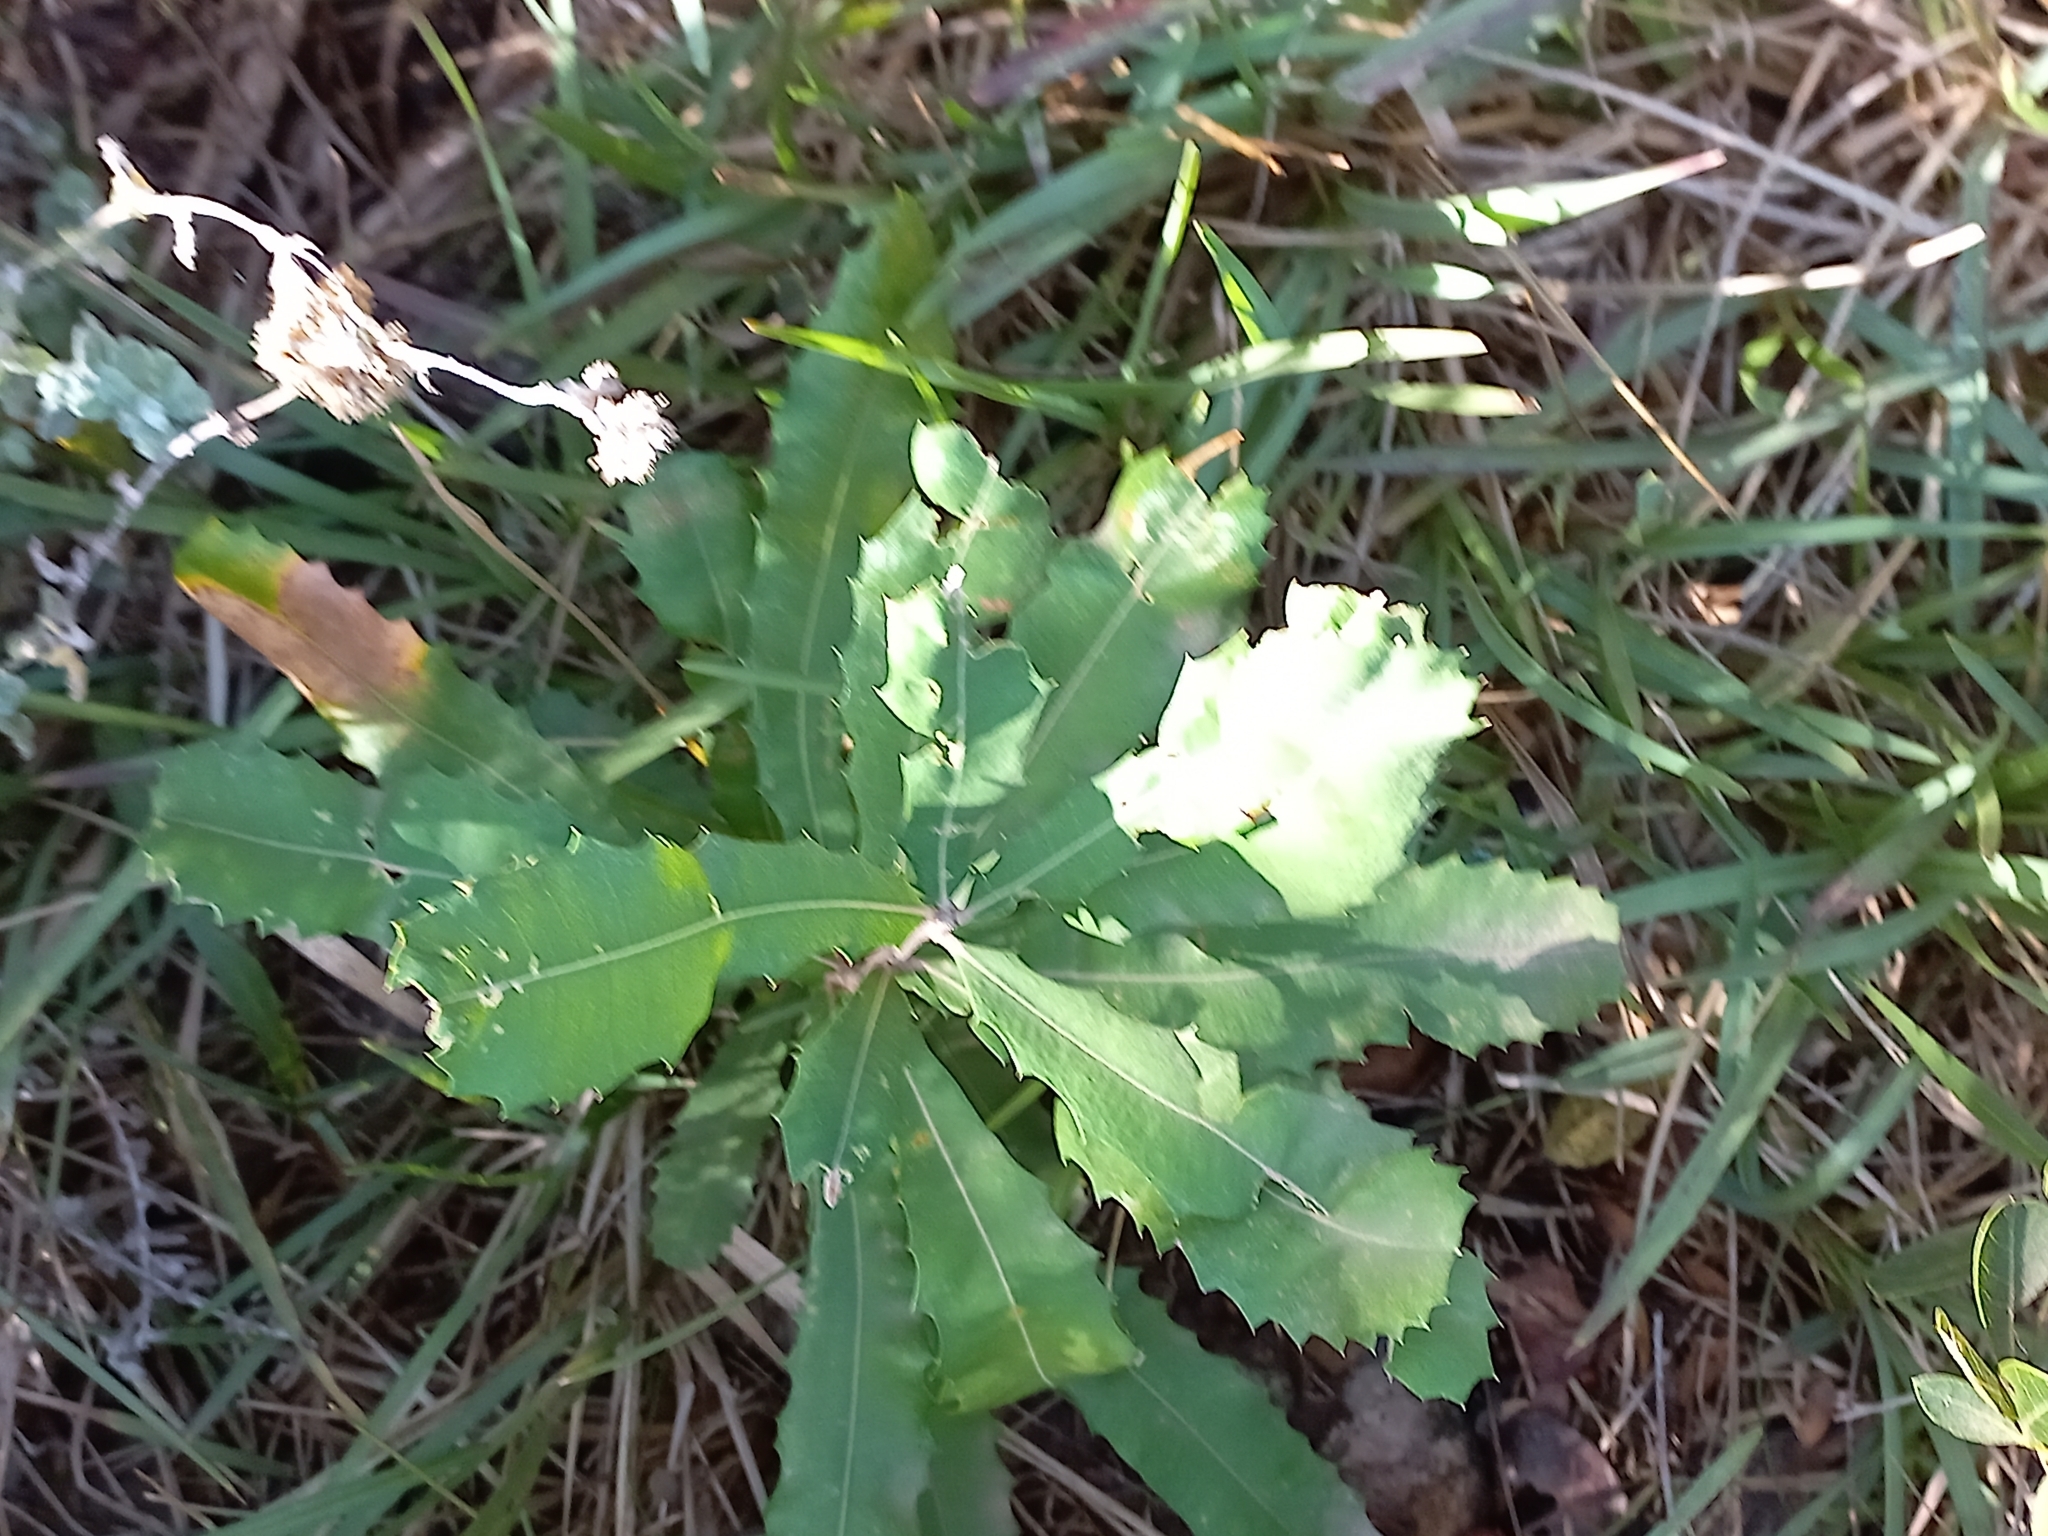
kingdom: Plantae
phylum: Tracheophyta
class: Magnoliopsida
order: Proteales
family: Proteaceae
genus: Banksia
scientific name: Banksia integrifolia
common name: White-honeysuckle
